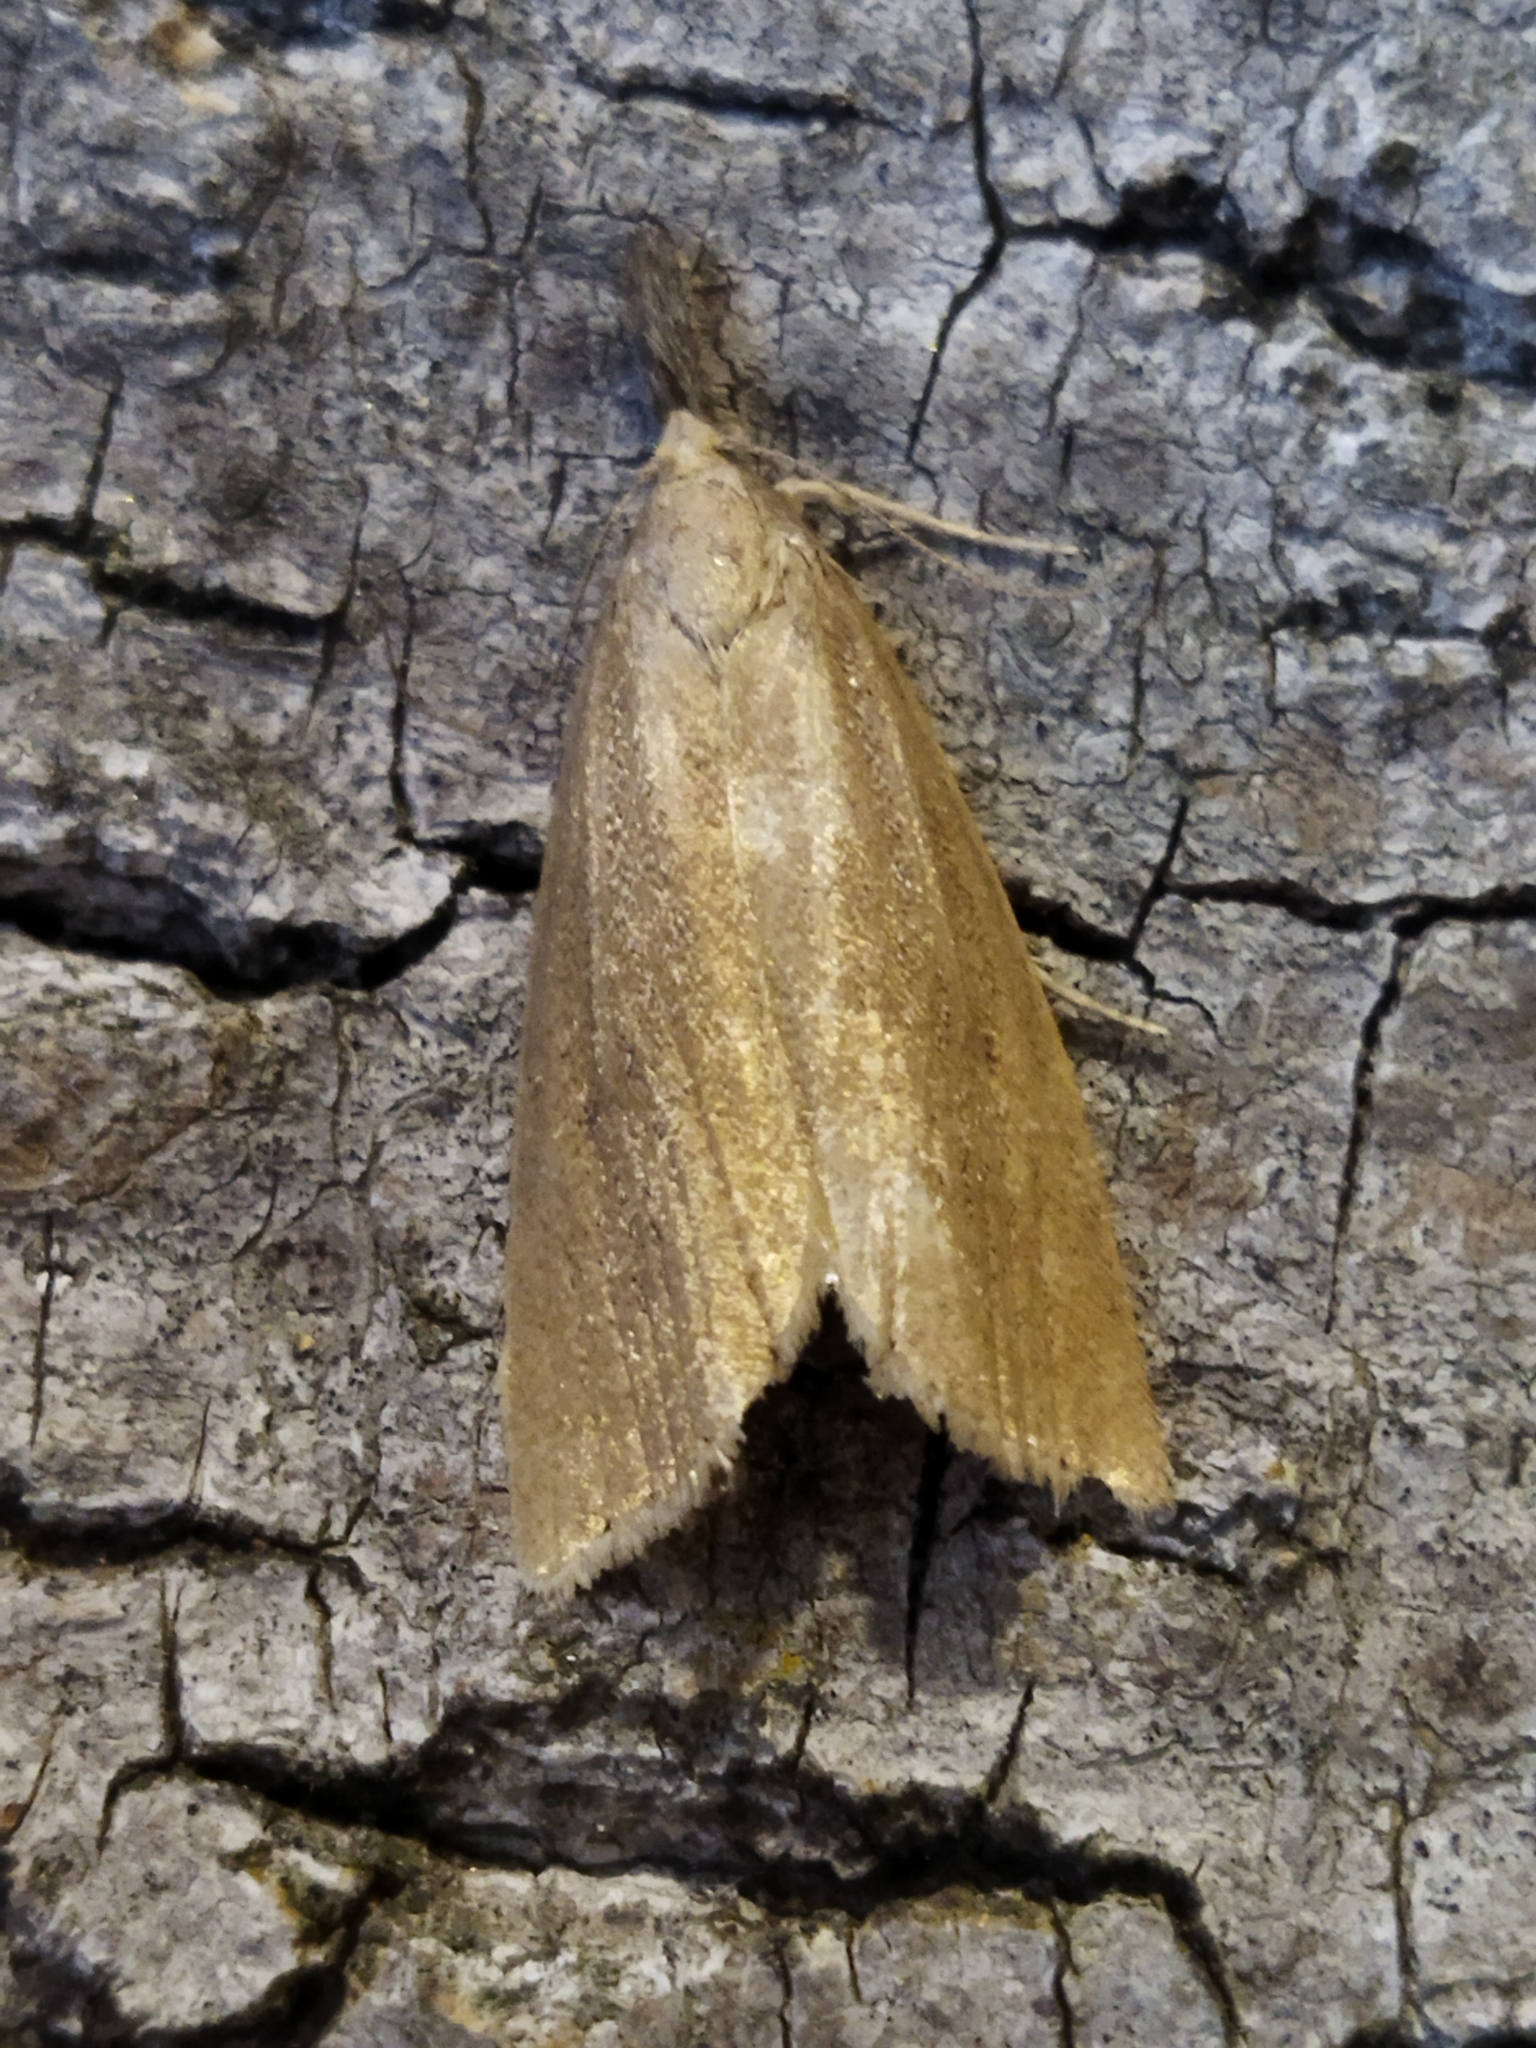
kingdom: Animalia
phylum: Arthropoda
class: Insecta
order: Lepidoptera
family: Crambidae
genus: Chilo
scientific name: Chilo phragmitella
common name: Reed veneer
